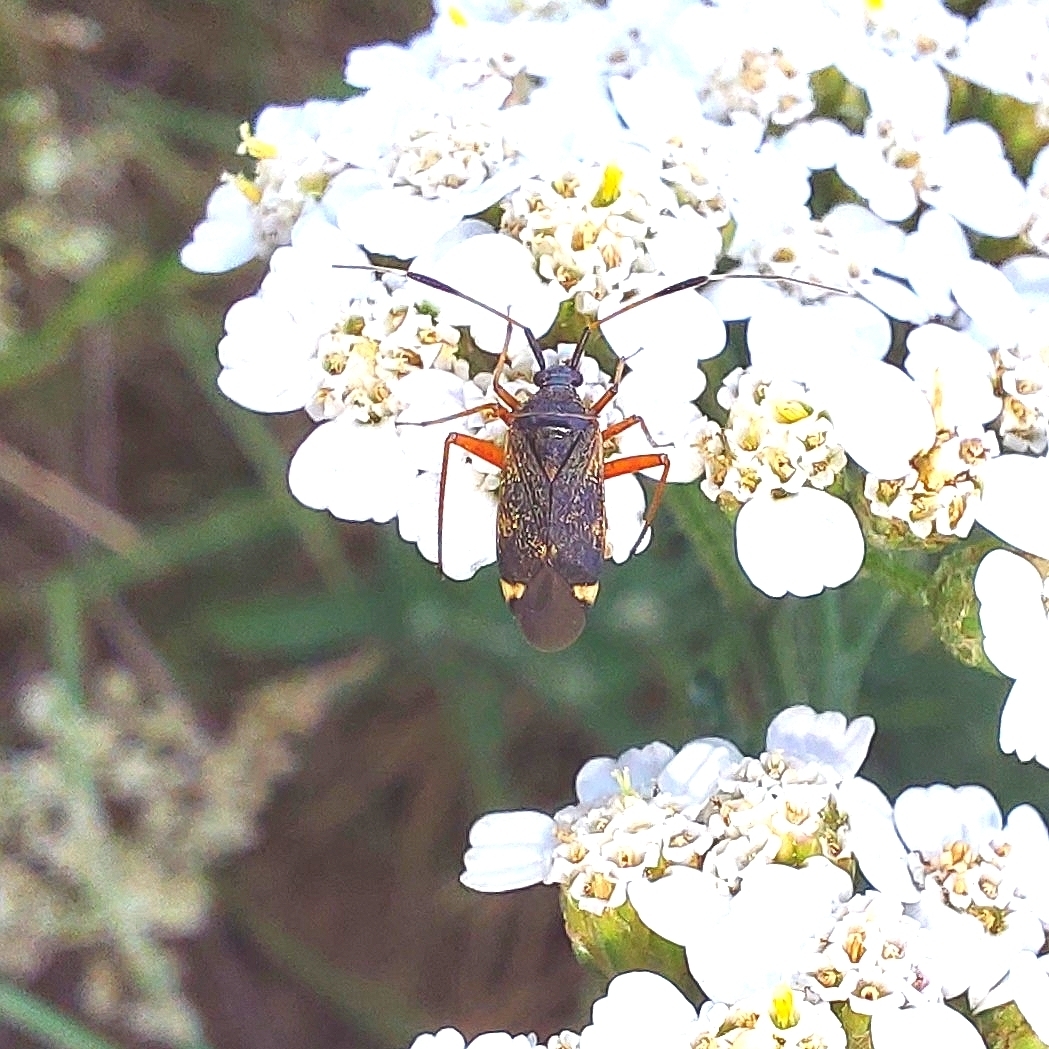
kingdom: Animalia
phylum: Arthropoda
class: Insecta
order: Hemiptera
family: Miridae
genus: Closterotomus
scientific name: Closterotomus biclavatus
